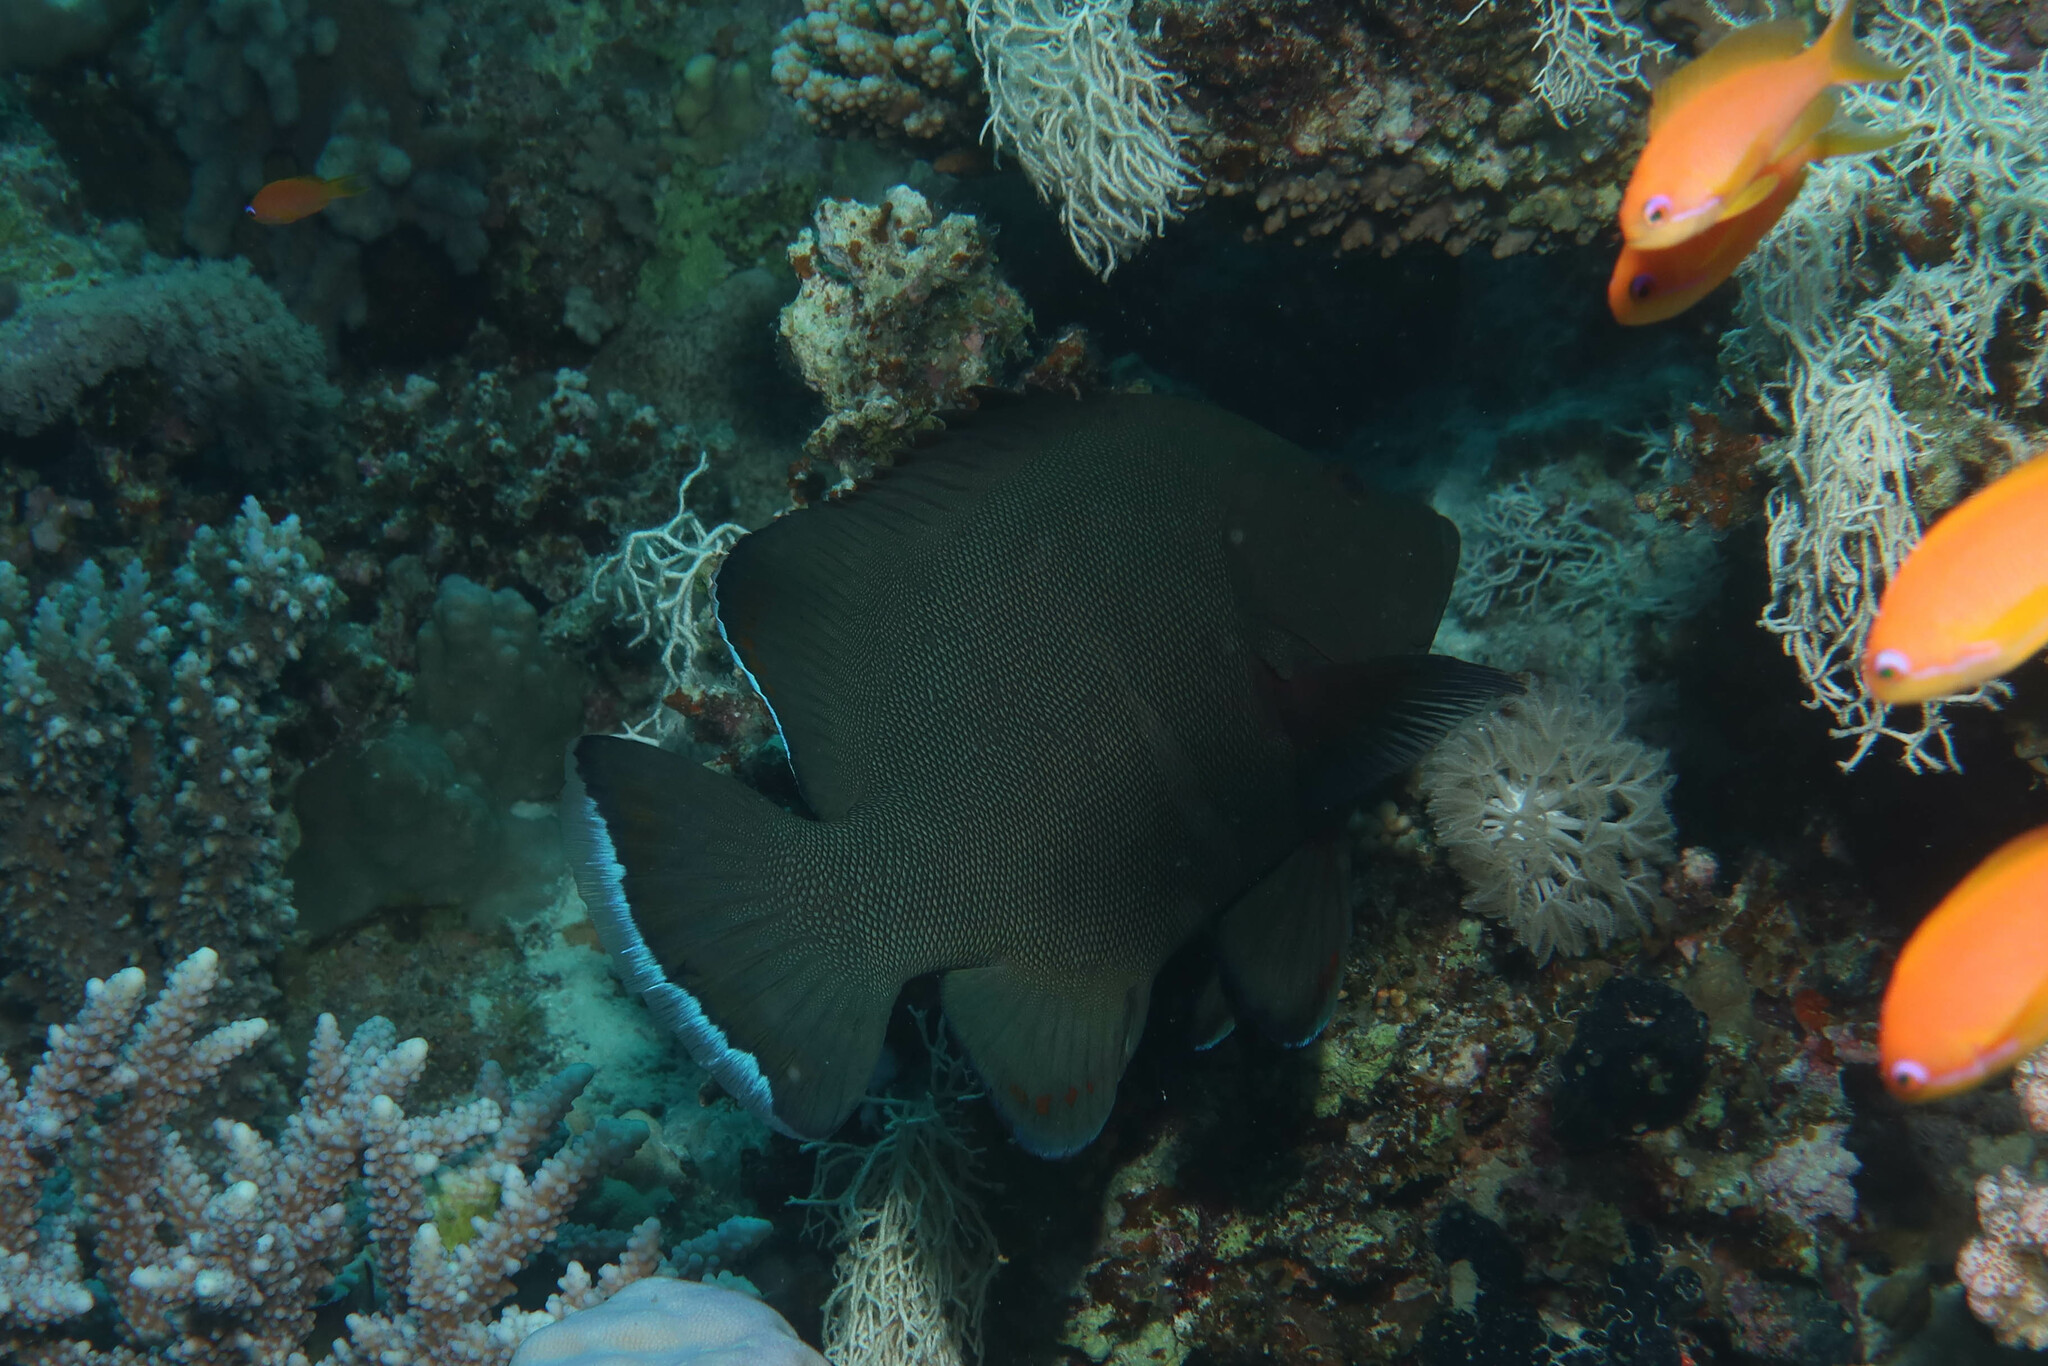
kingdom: Animalia
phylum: Chordata
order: Perciformes
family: Serranidae
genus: Aethaloperca
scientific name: Aethaloperca rogaa
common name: Redmouth grouper
